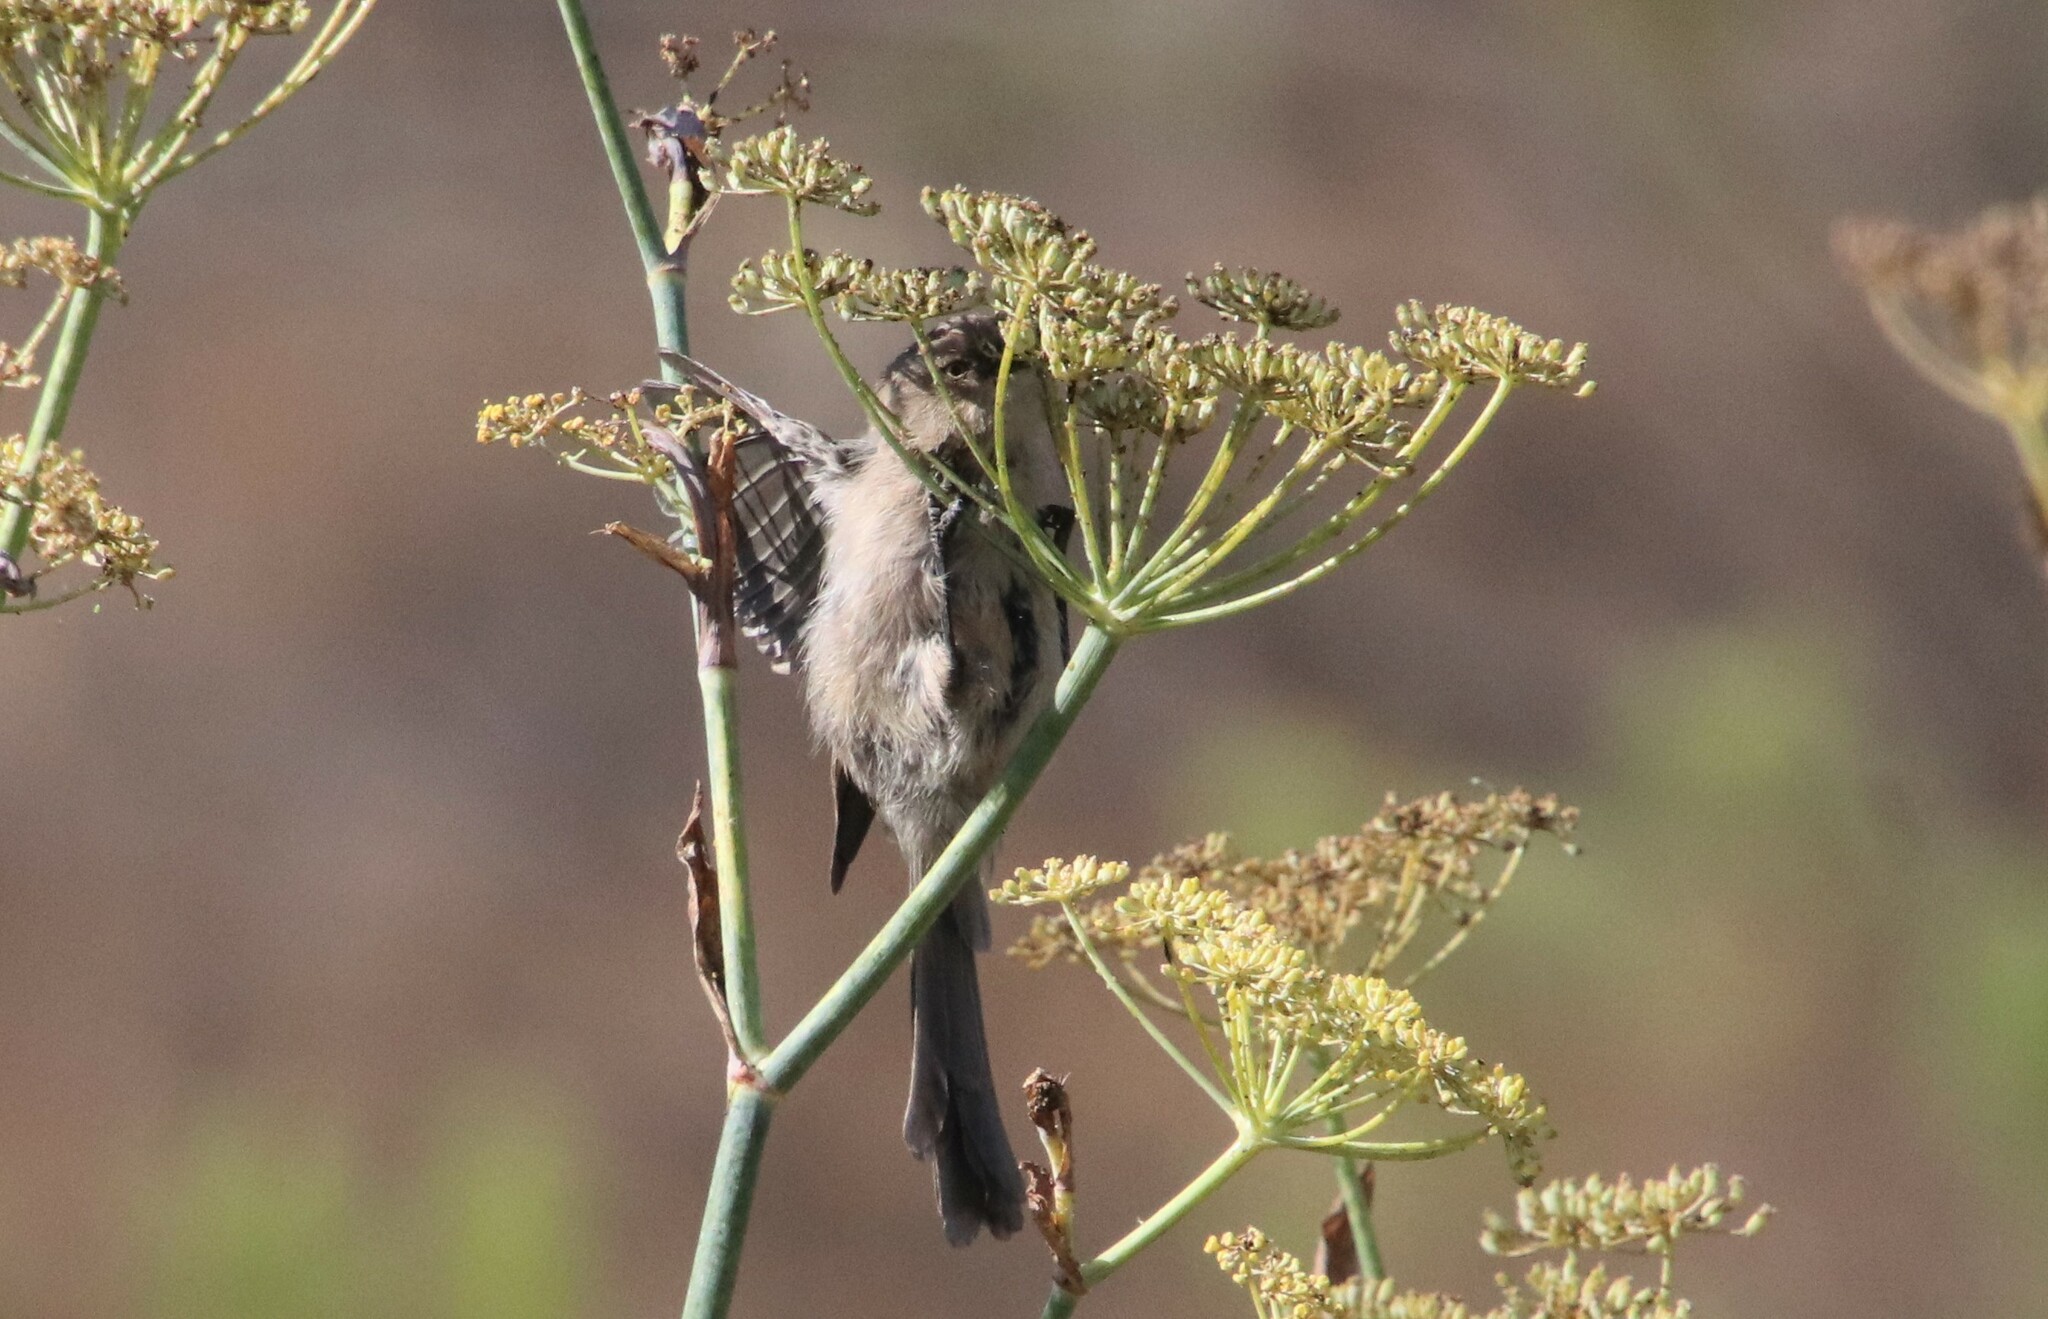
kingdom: Animalia
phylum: Chordata
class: Aves
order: Passeriformes
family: Aegithalidae
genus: Psaltriparus
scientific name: Psaltriparus minimus
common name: American bushtit
